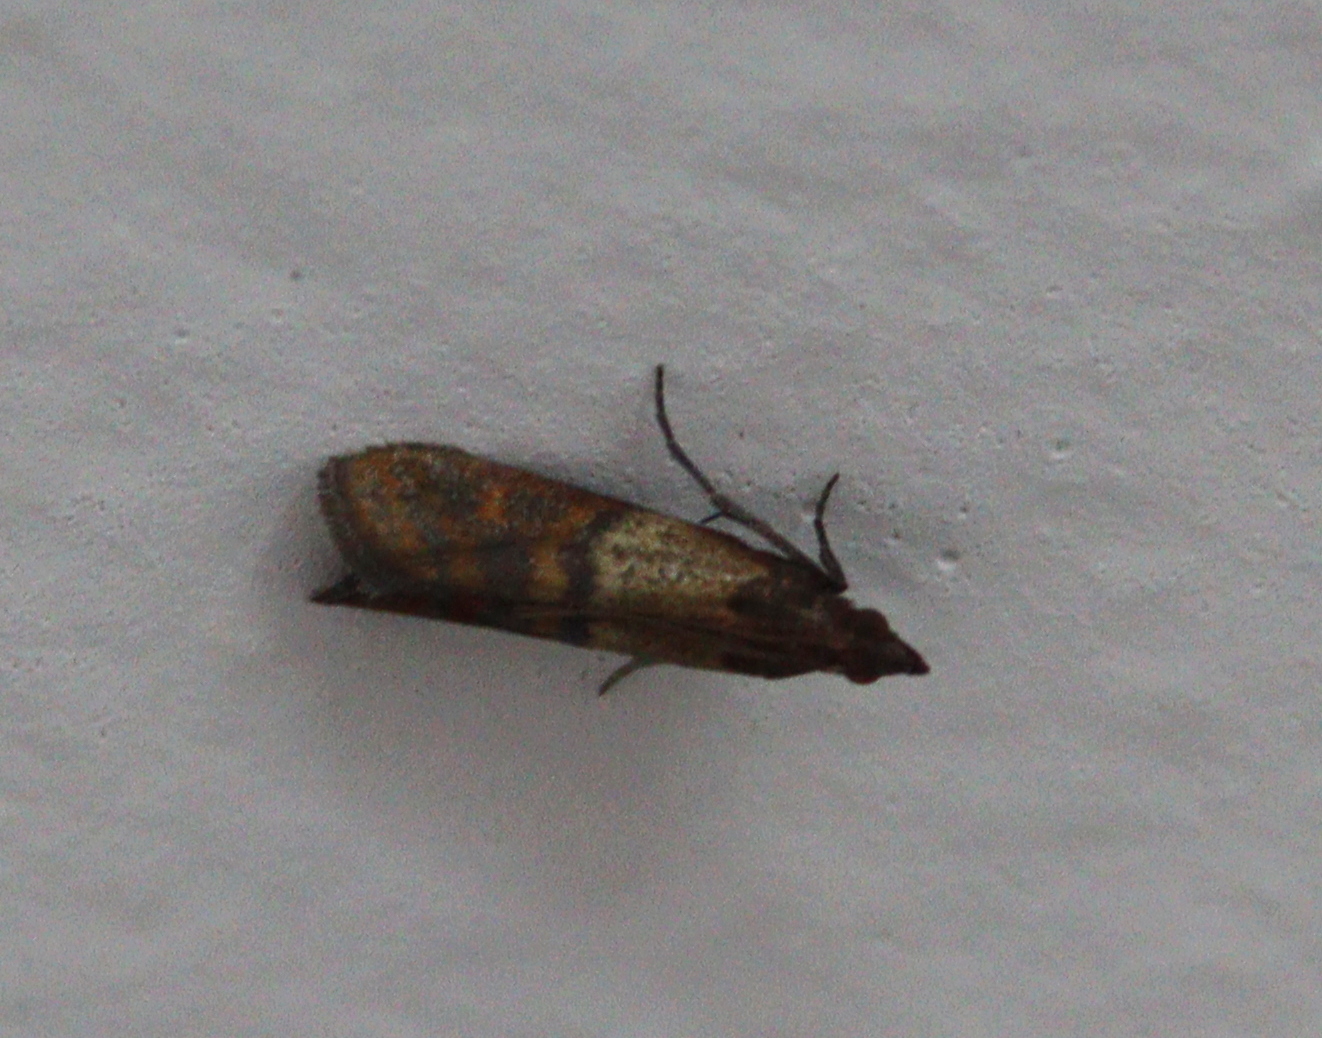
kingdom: Animalia
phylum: Arthropoda
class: Insecta
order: Lepidoptera
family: Pyralidae
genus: Plodia
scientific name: Plodia interpunctella
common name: Indian meal moth
